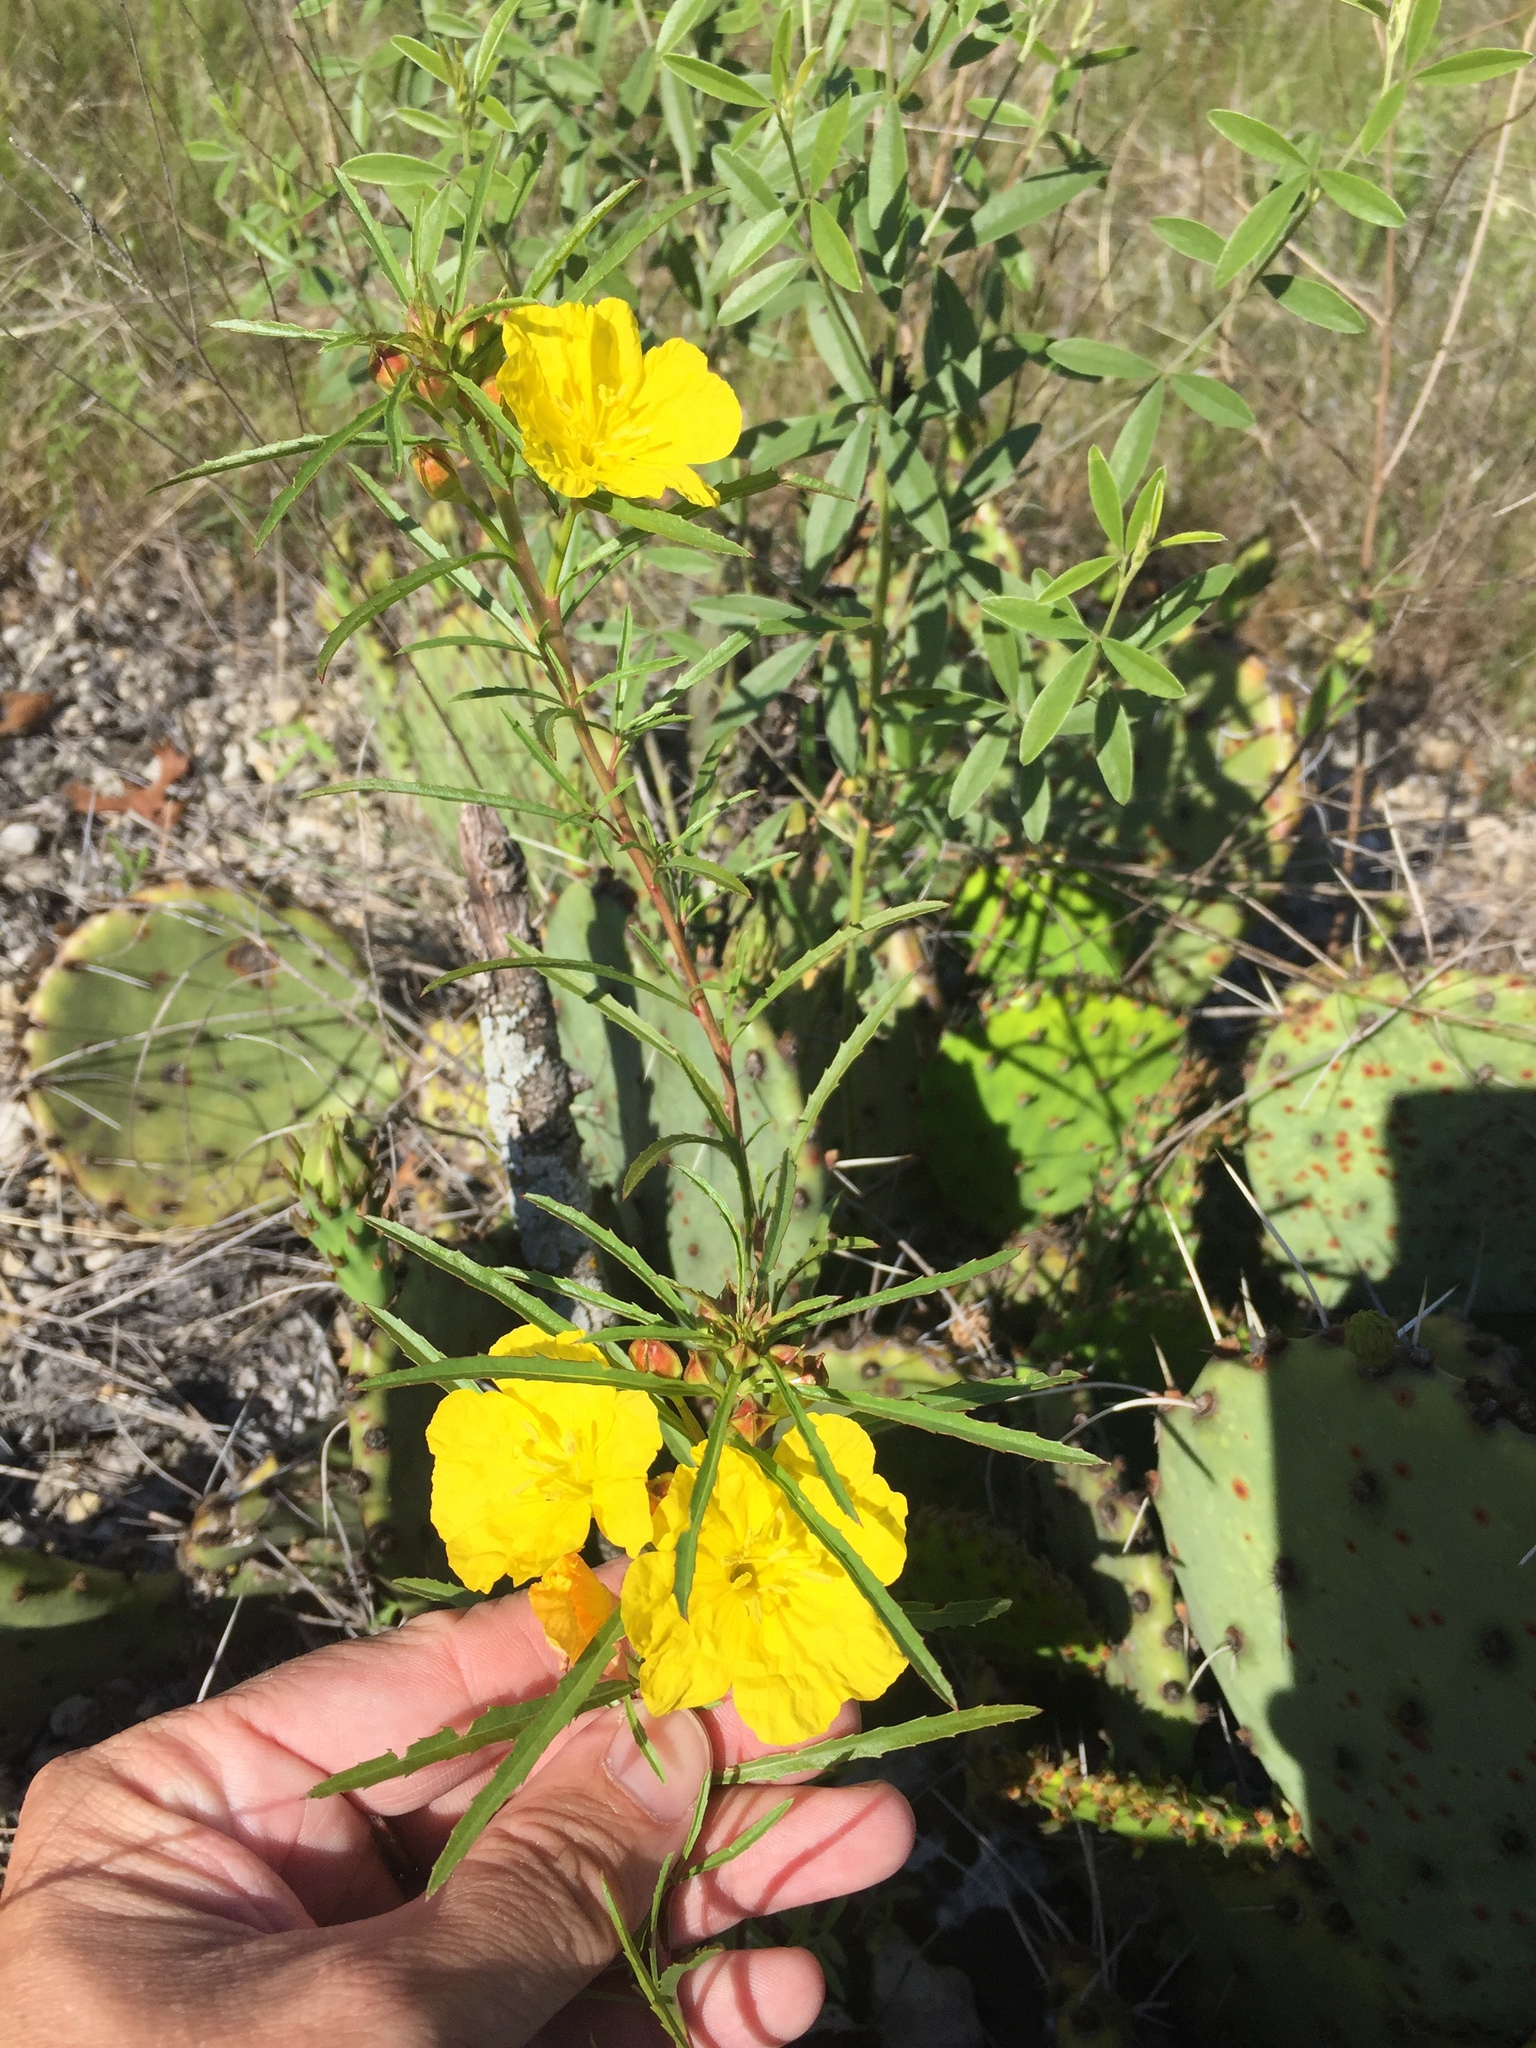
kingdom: Plantae
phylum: Tracheophyta
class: Magnoliopsida
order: Myrtales
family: Onagraceae
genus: Oenothera
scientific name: Oenothera
